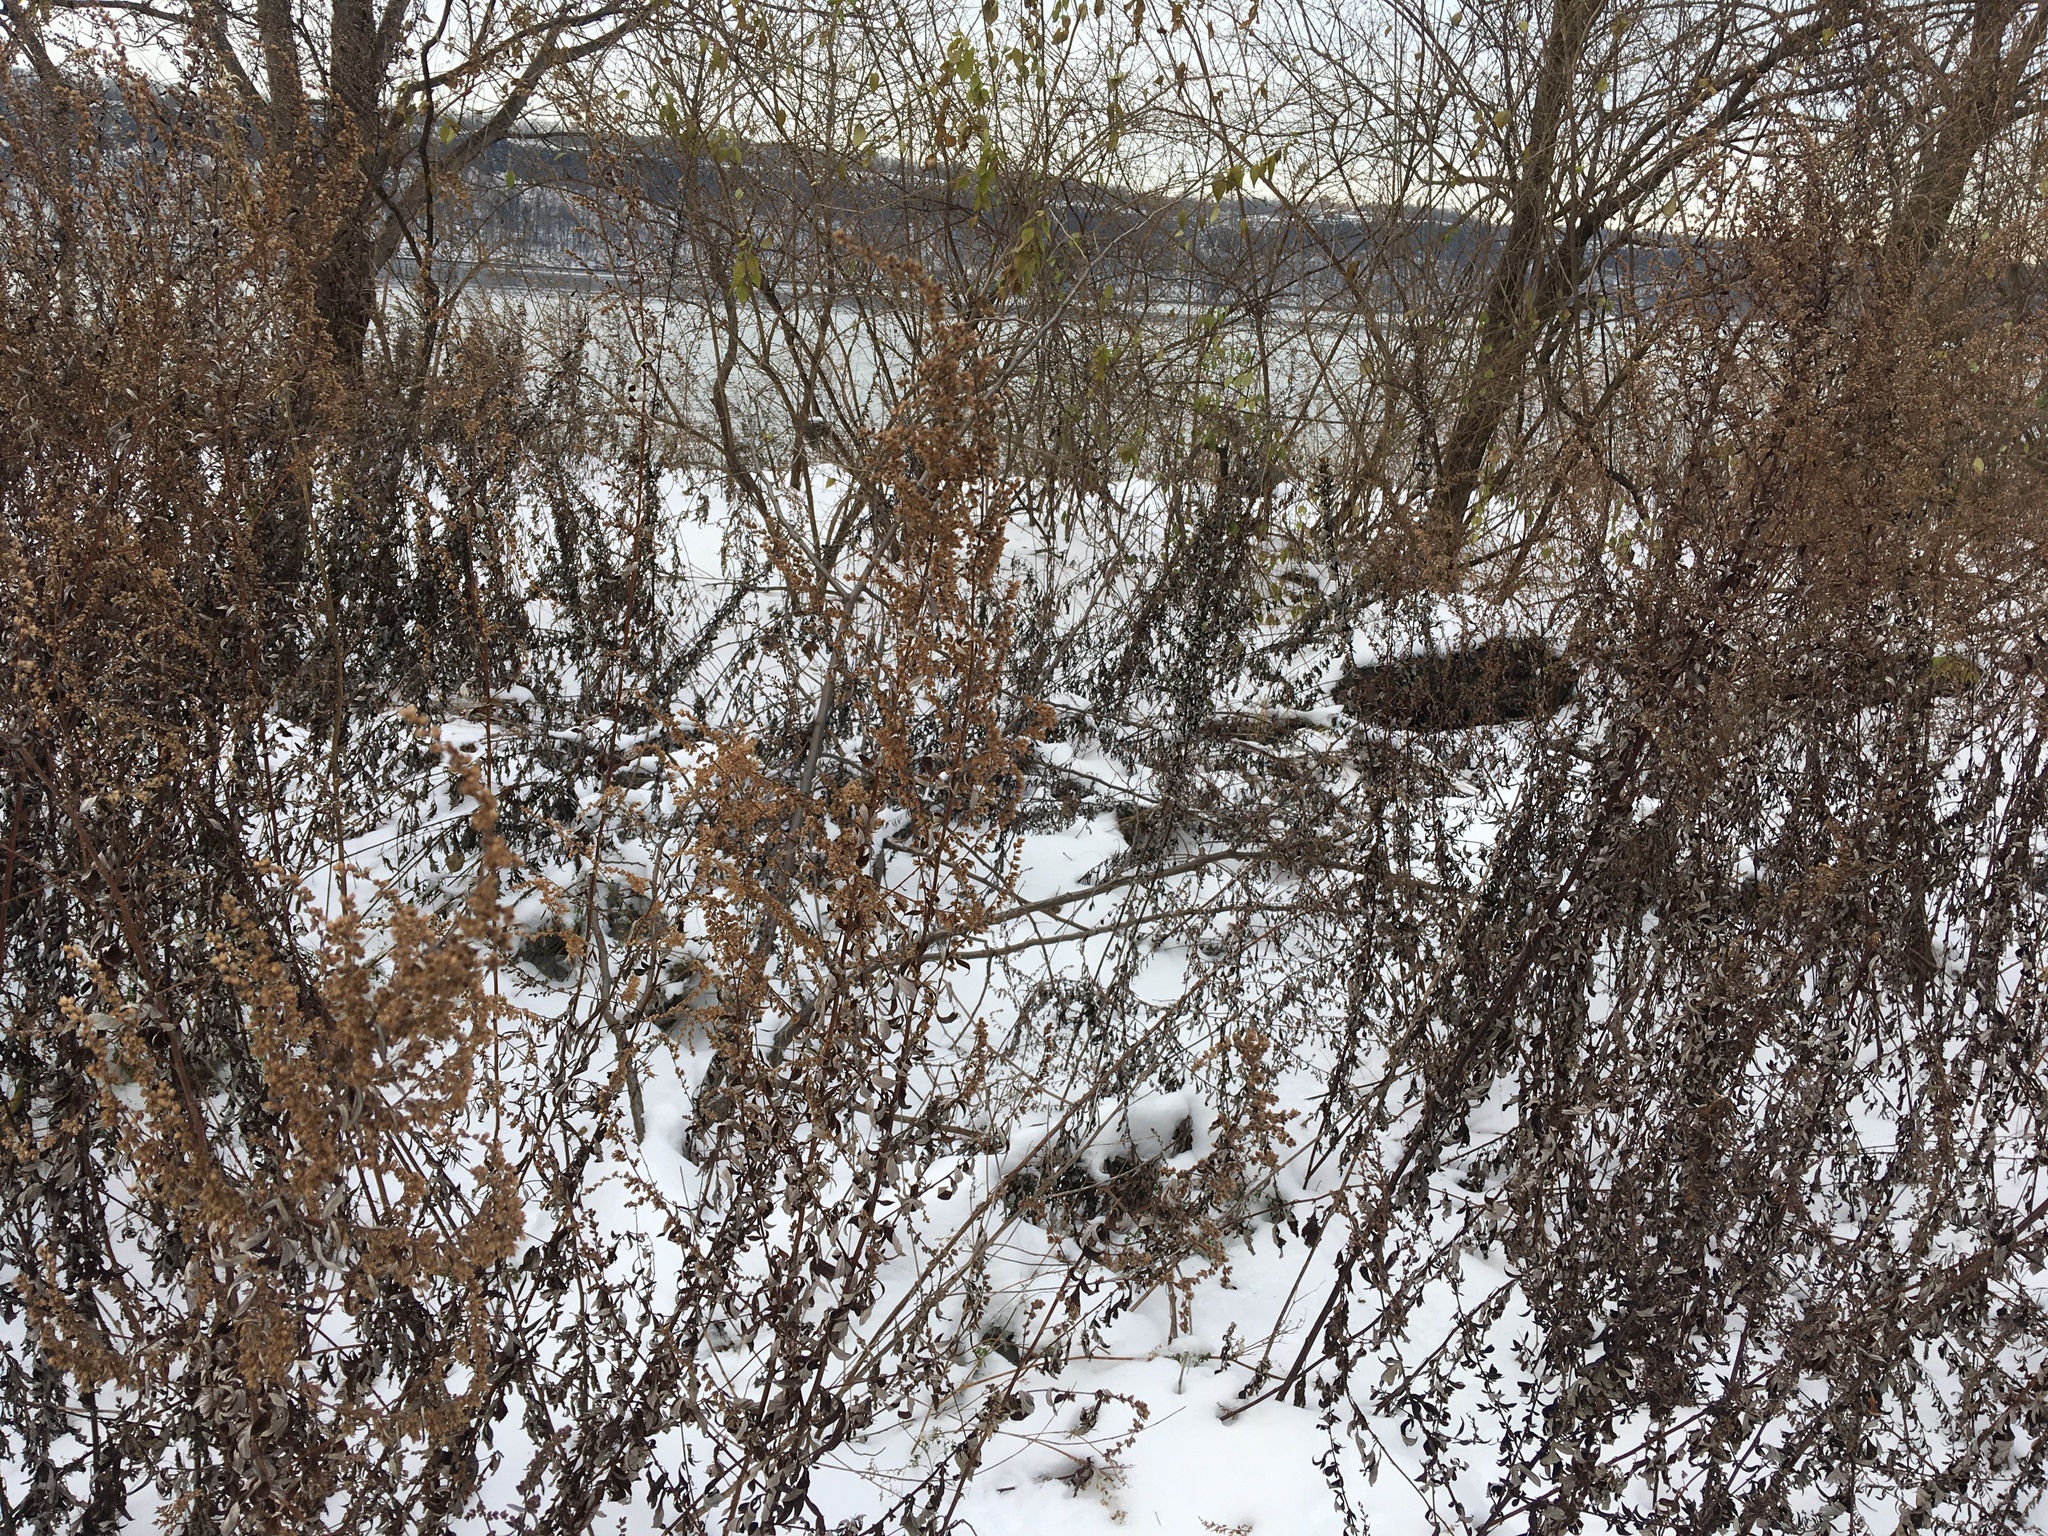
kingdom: Plantae
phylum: Tracheophyta
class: Magnoliopsida
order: Asterales
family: Asteraceae
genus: Artemisia
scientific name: Artemisia vulgaris
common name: Mugwort
